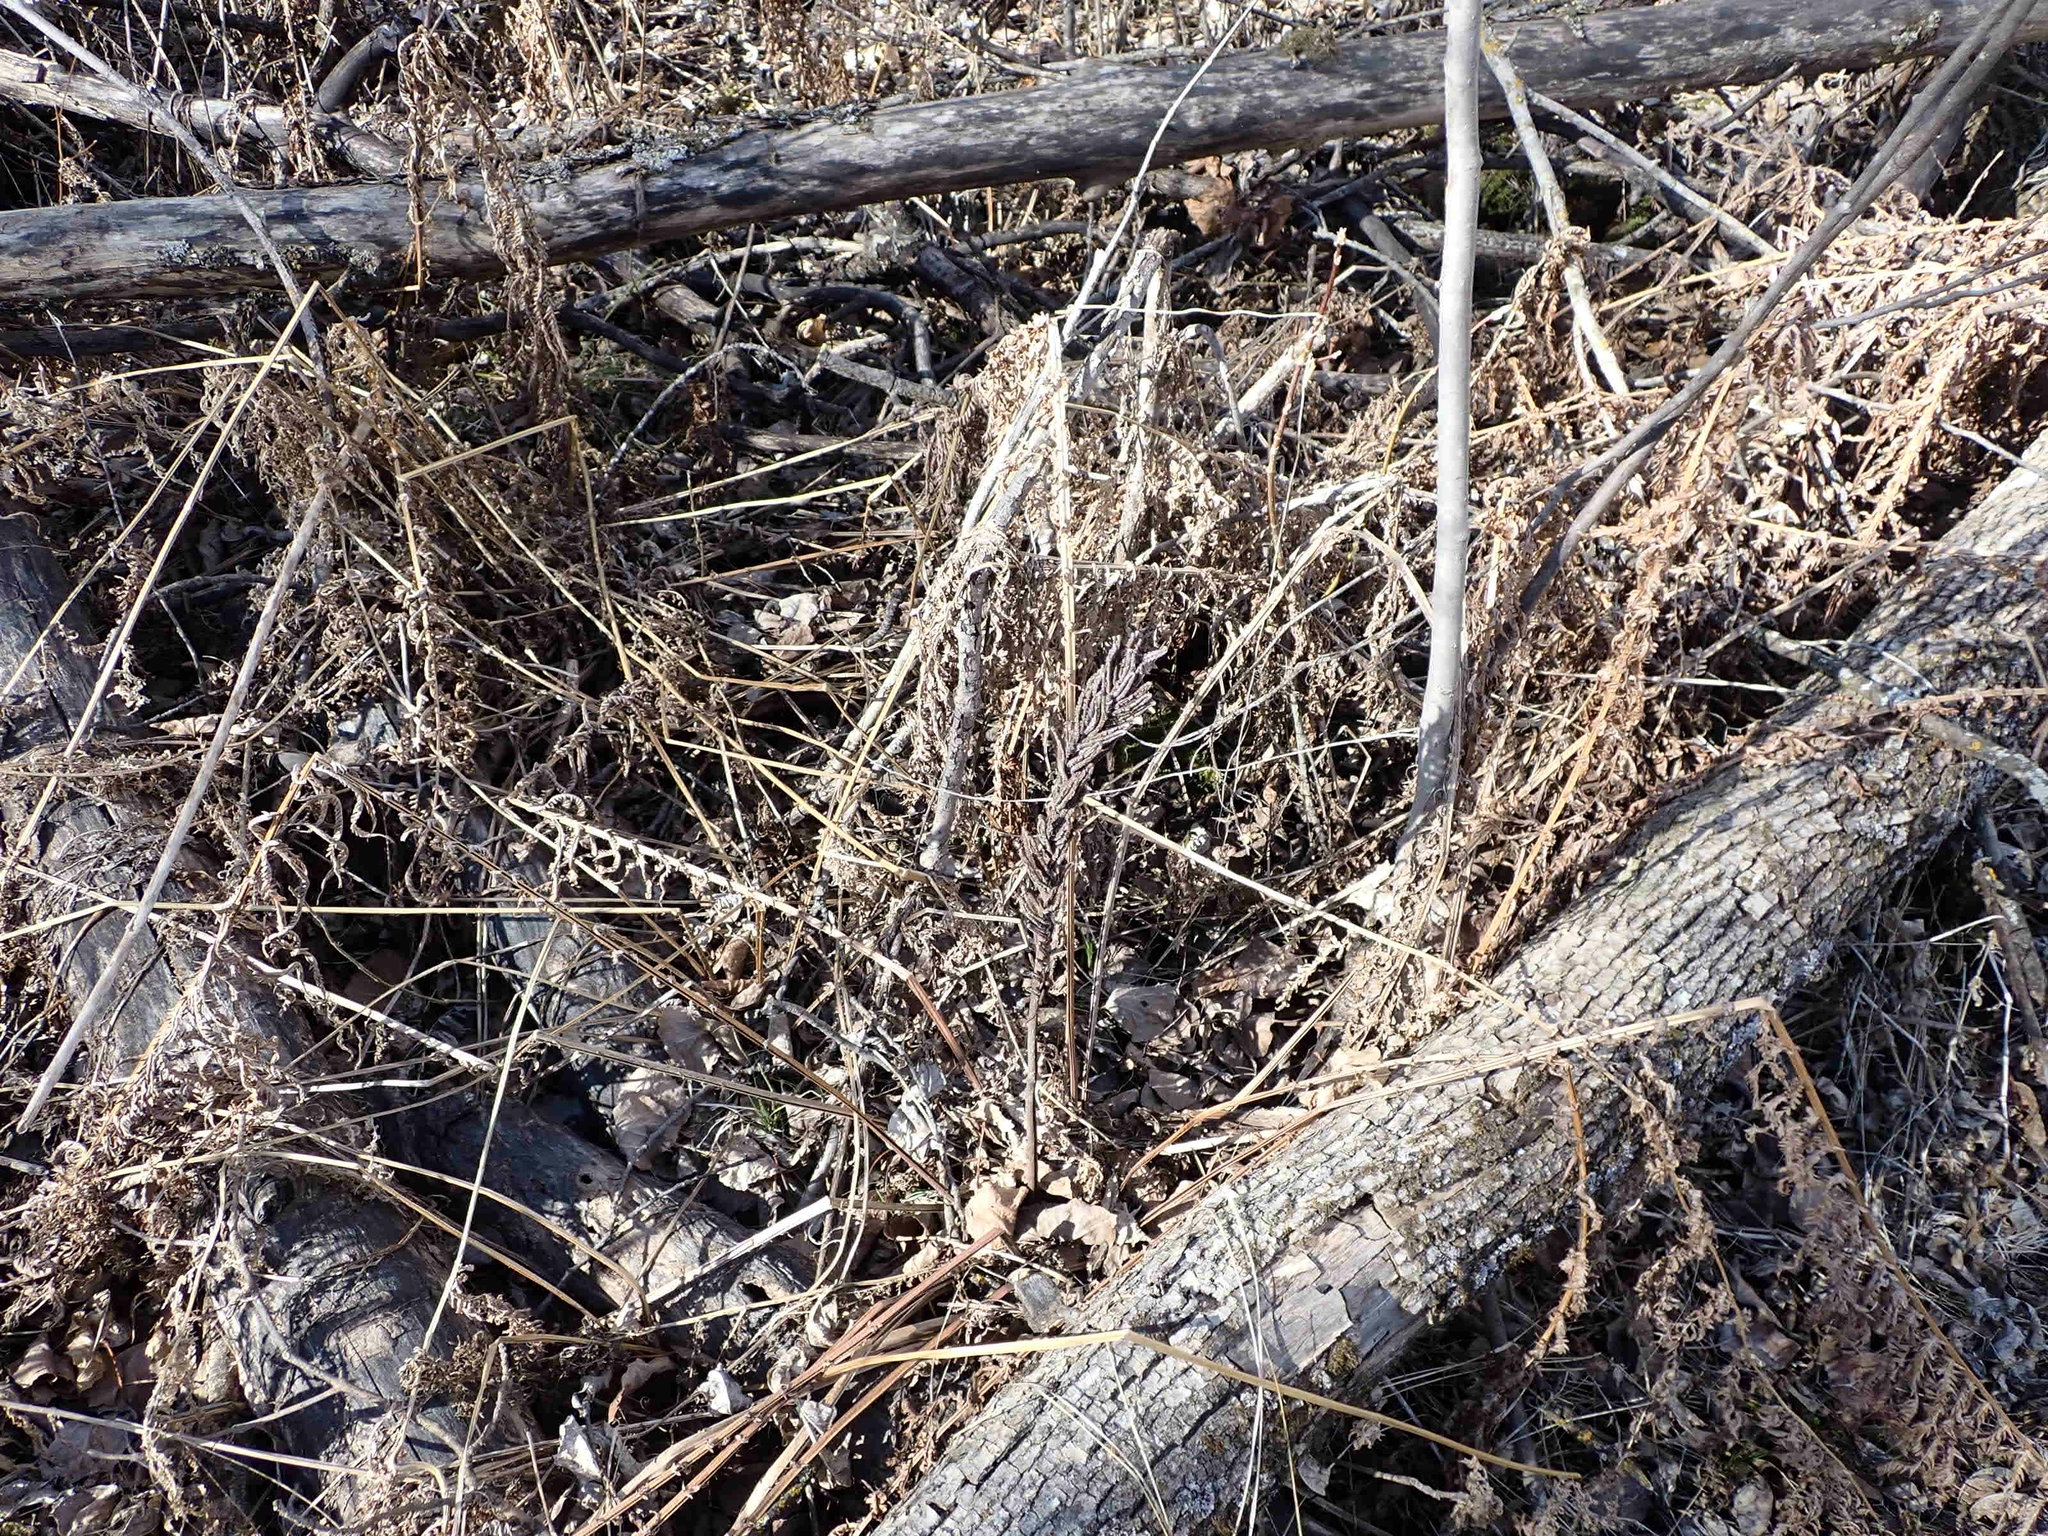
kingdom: Plantae
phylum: Tracheophyta
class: Polypodiopsida
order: Polypodiales
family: Onocleaceae
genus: Matteuccia
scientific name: Matteuccia struthiopteris
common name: Ostrich fern
